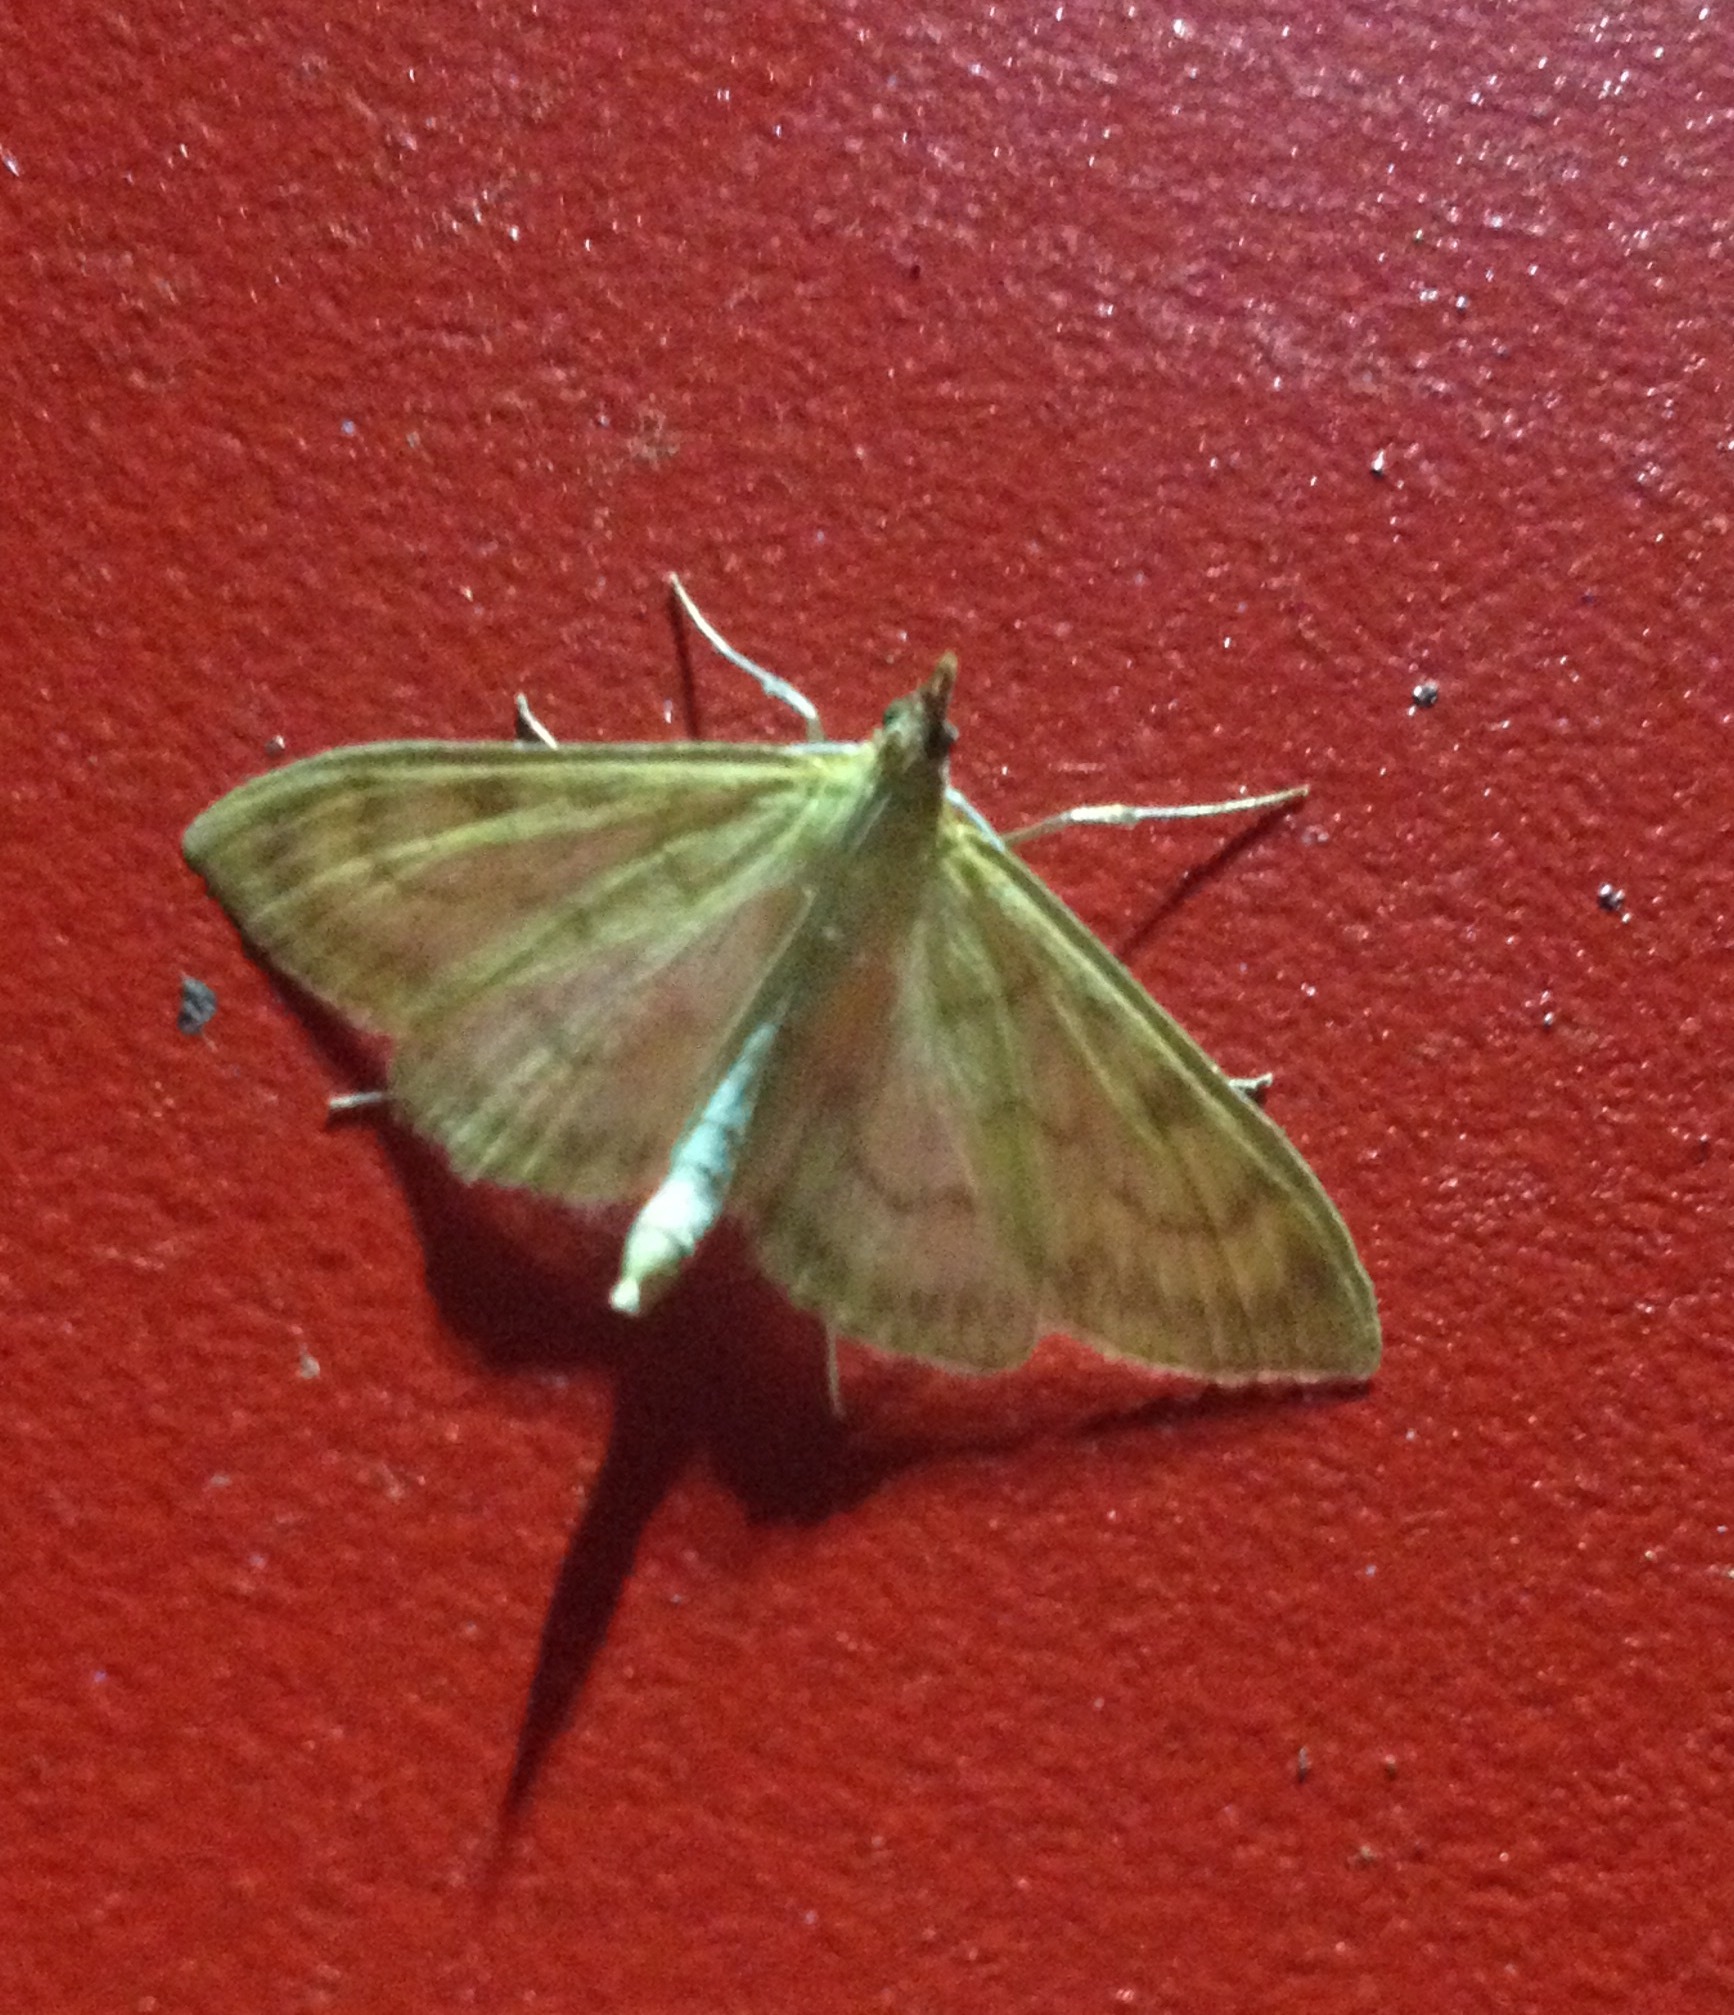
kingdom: Animalia
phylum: Arthropoda
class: Insecta
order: Lepidoptera
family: Crambidae
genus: Paratalanta
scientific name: Paratalanta pandalis
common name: Bordered pearl
